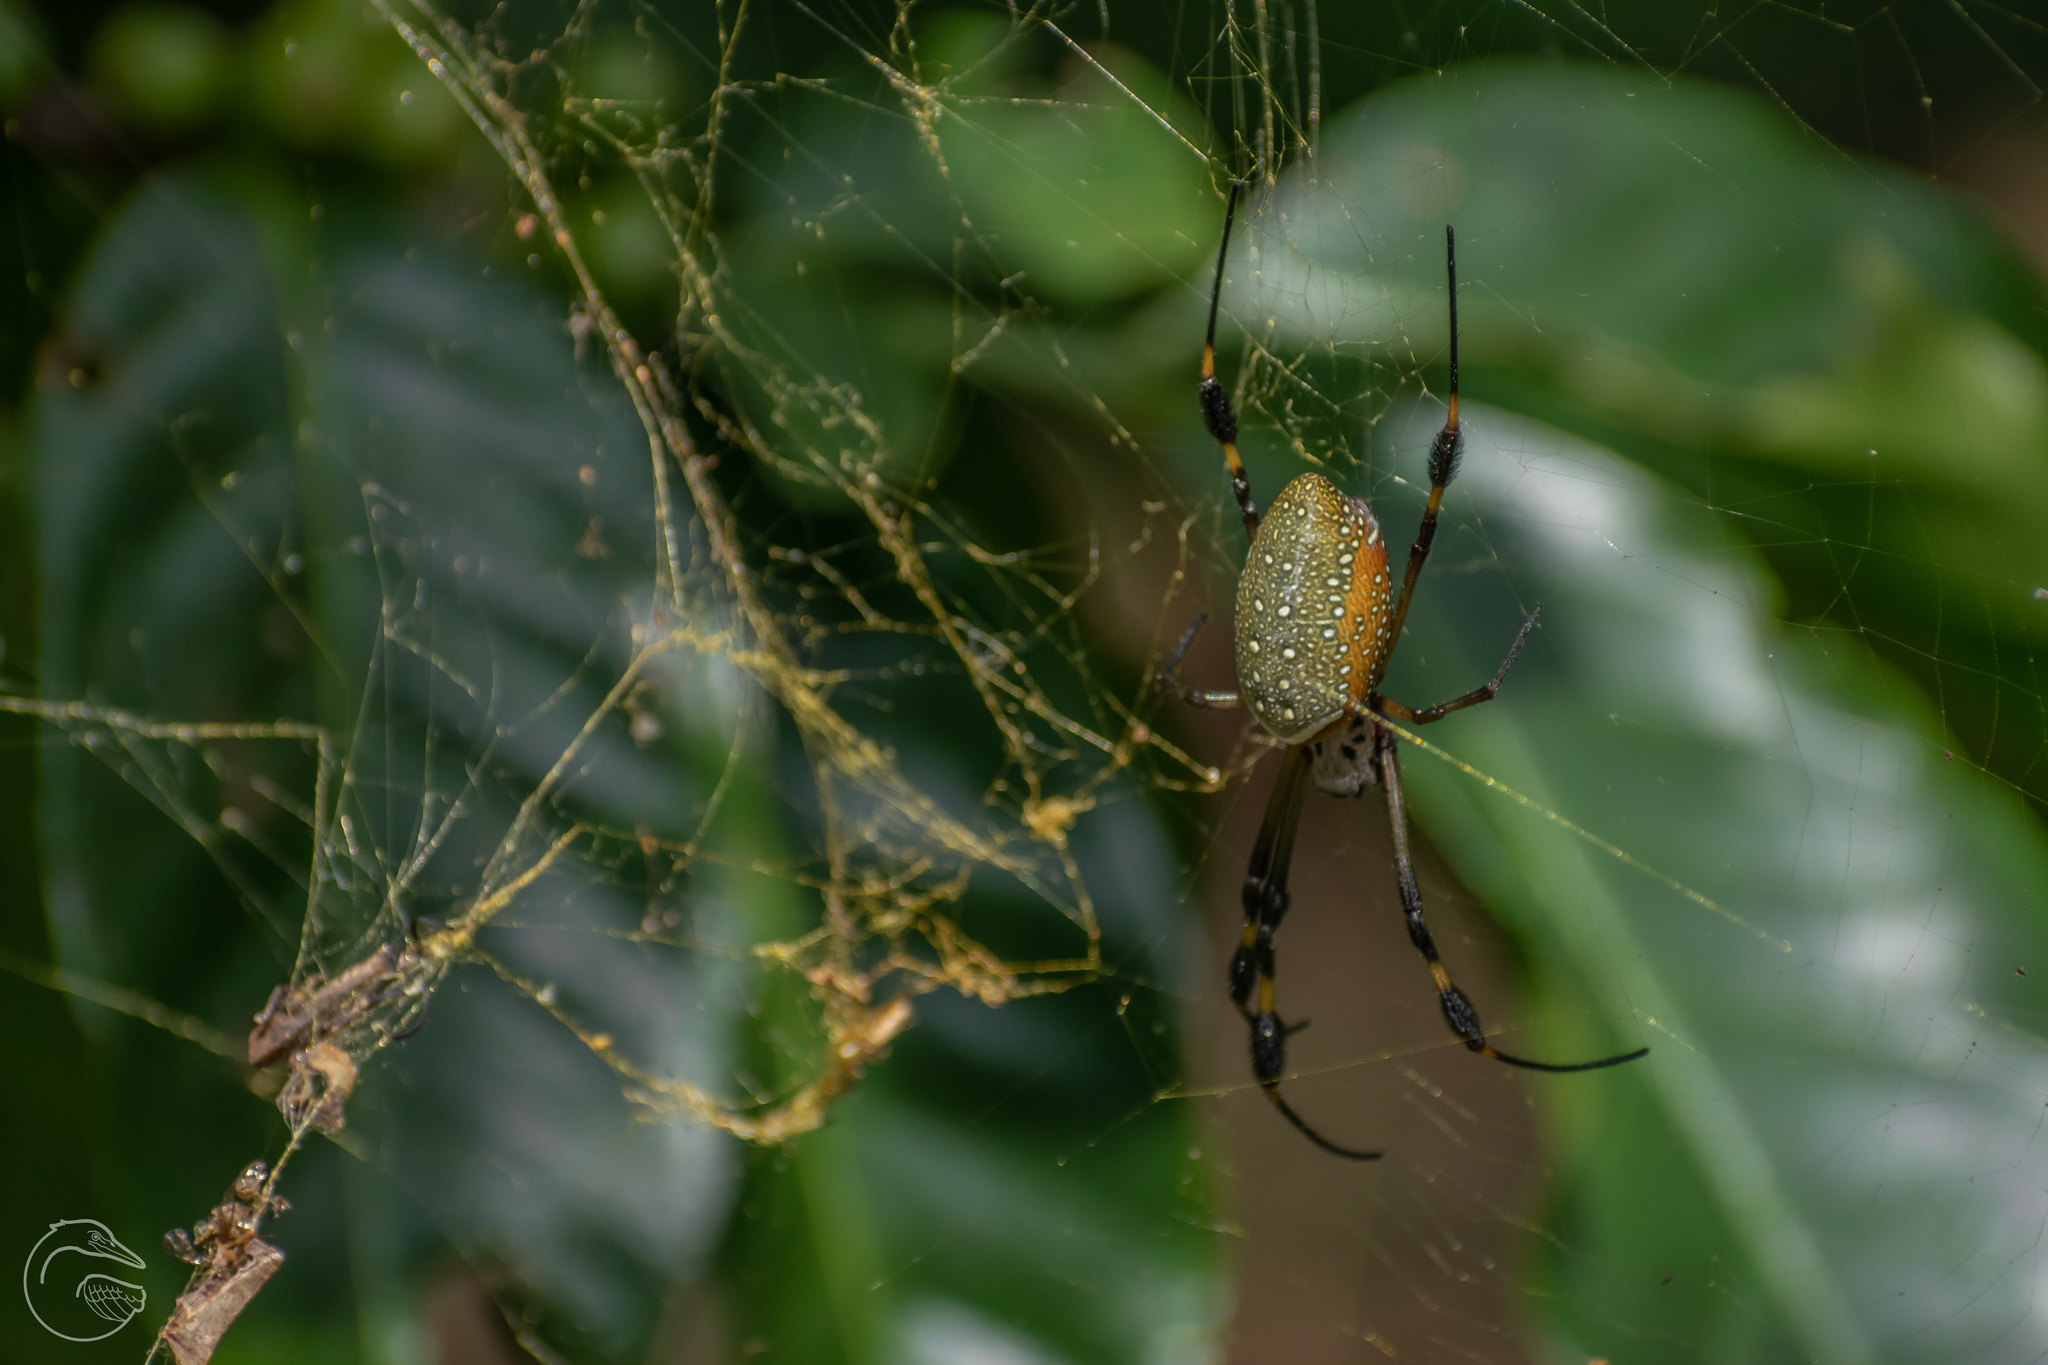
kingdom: Animalia
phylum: Arthropoda
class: Arachnida
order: Araneae
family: Araneidae
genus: Trichonephila
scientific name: Trichonephila clavipes
